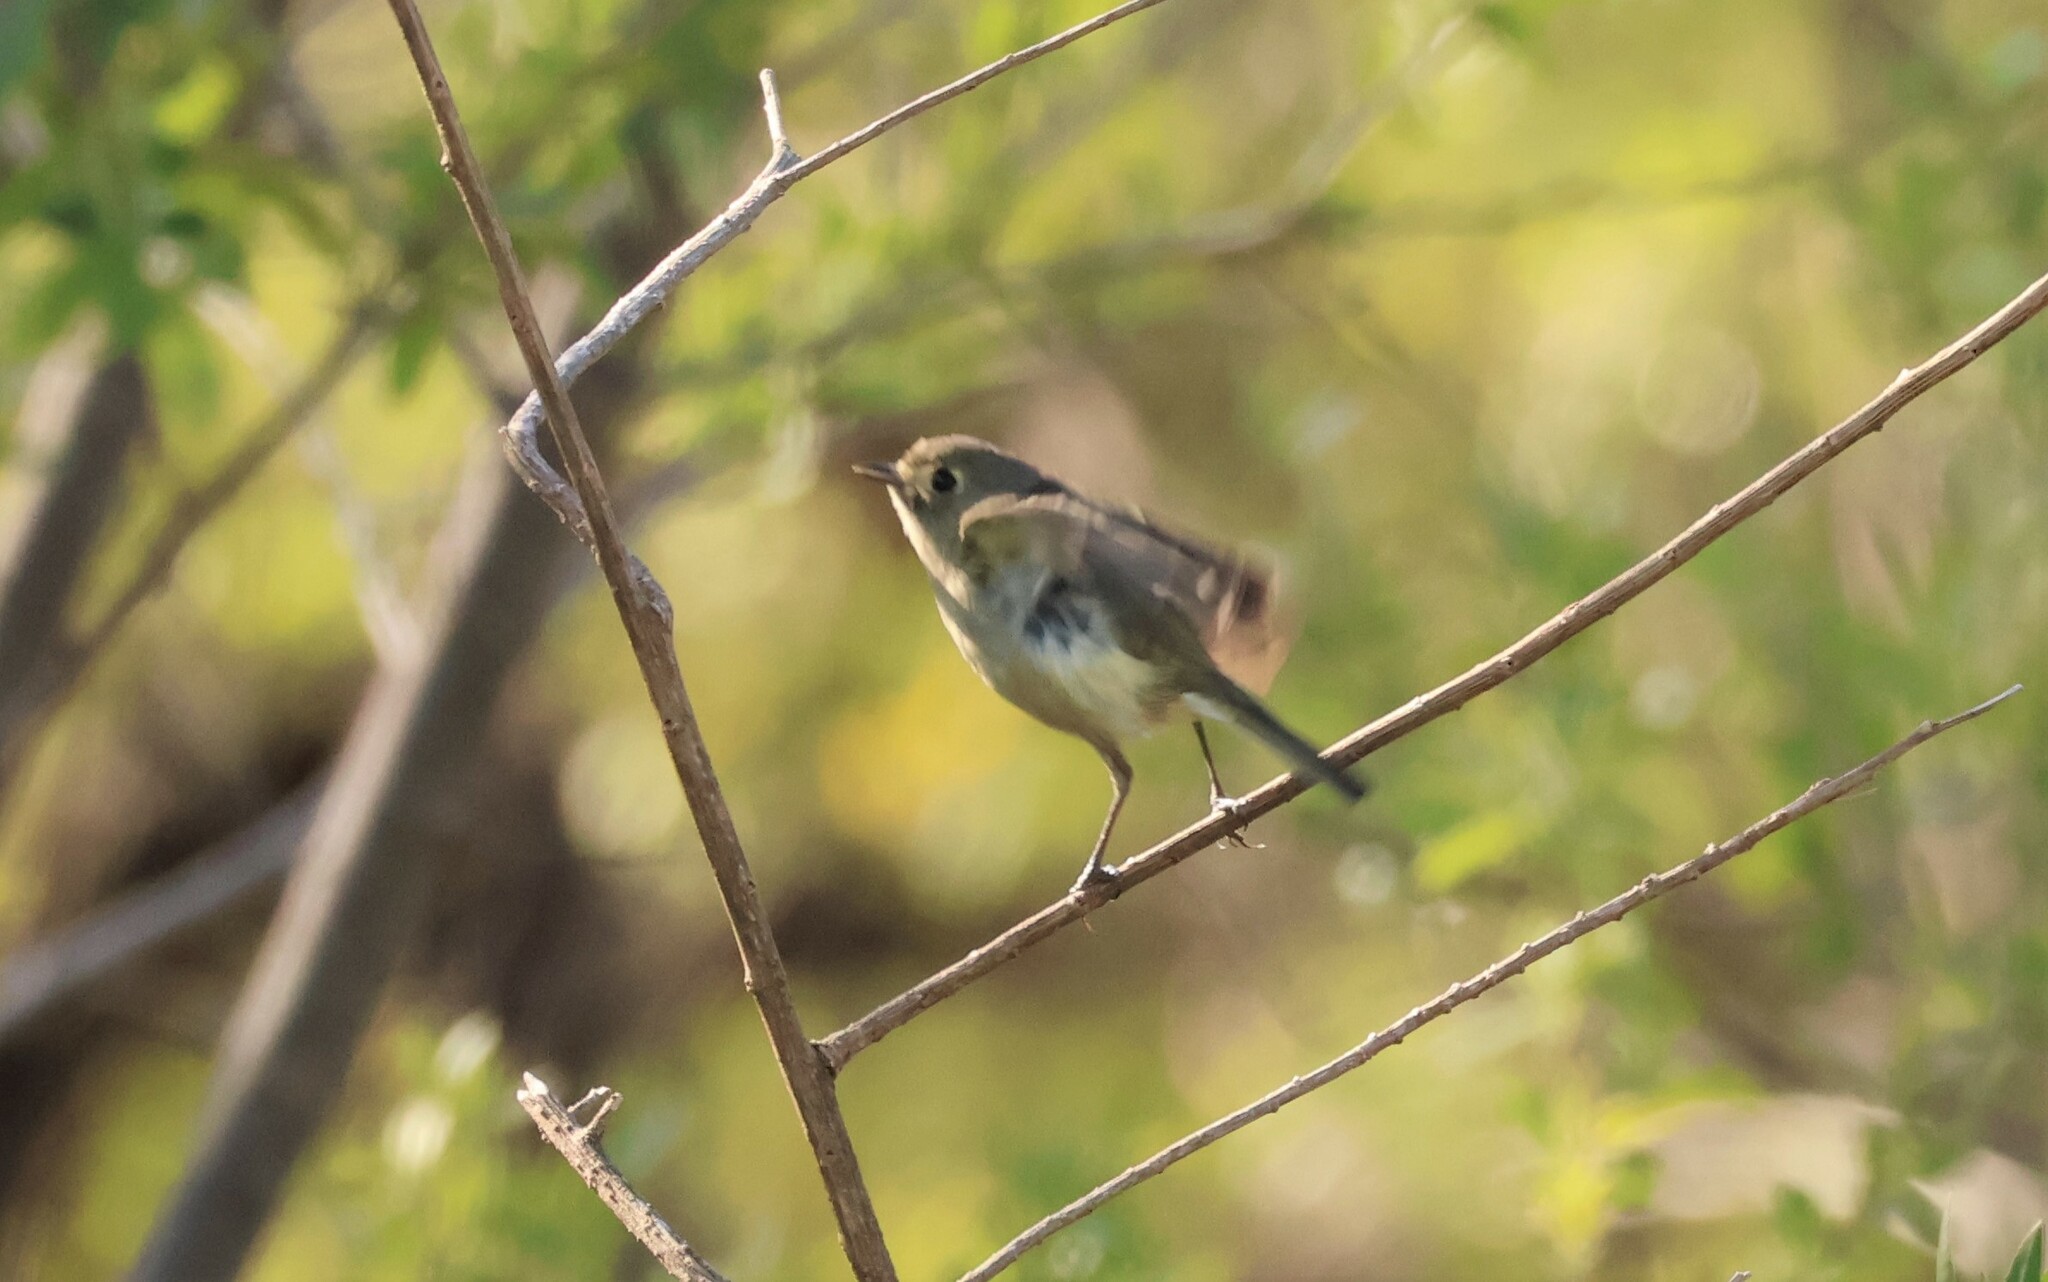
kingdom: Animalia
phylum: Chordata
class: Aves
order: Passeriformes
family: Vireonidae
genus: Vireo
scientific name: Vireo huttoni
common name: Hutton's vireo
